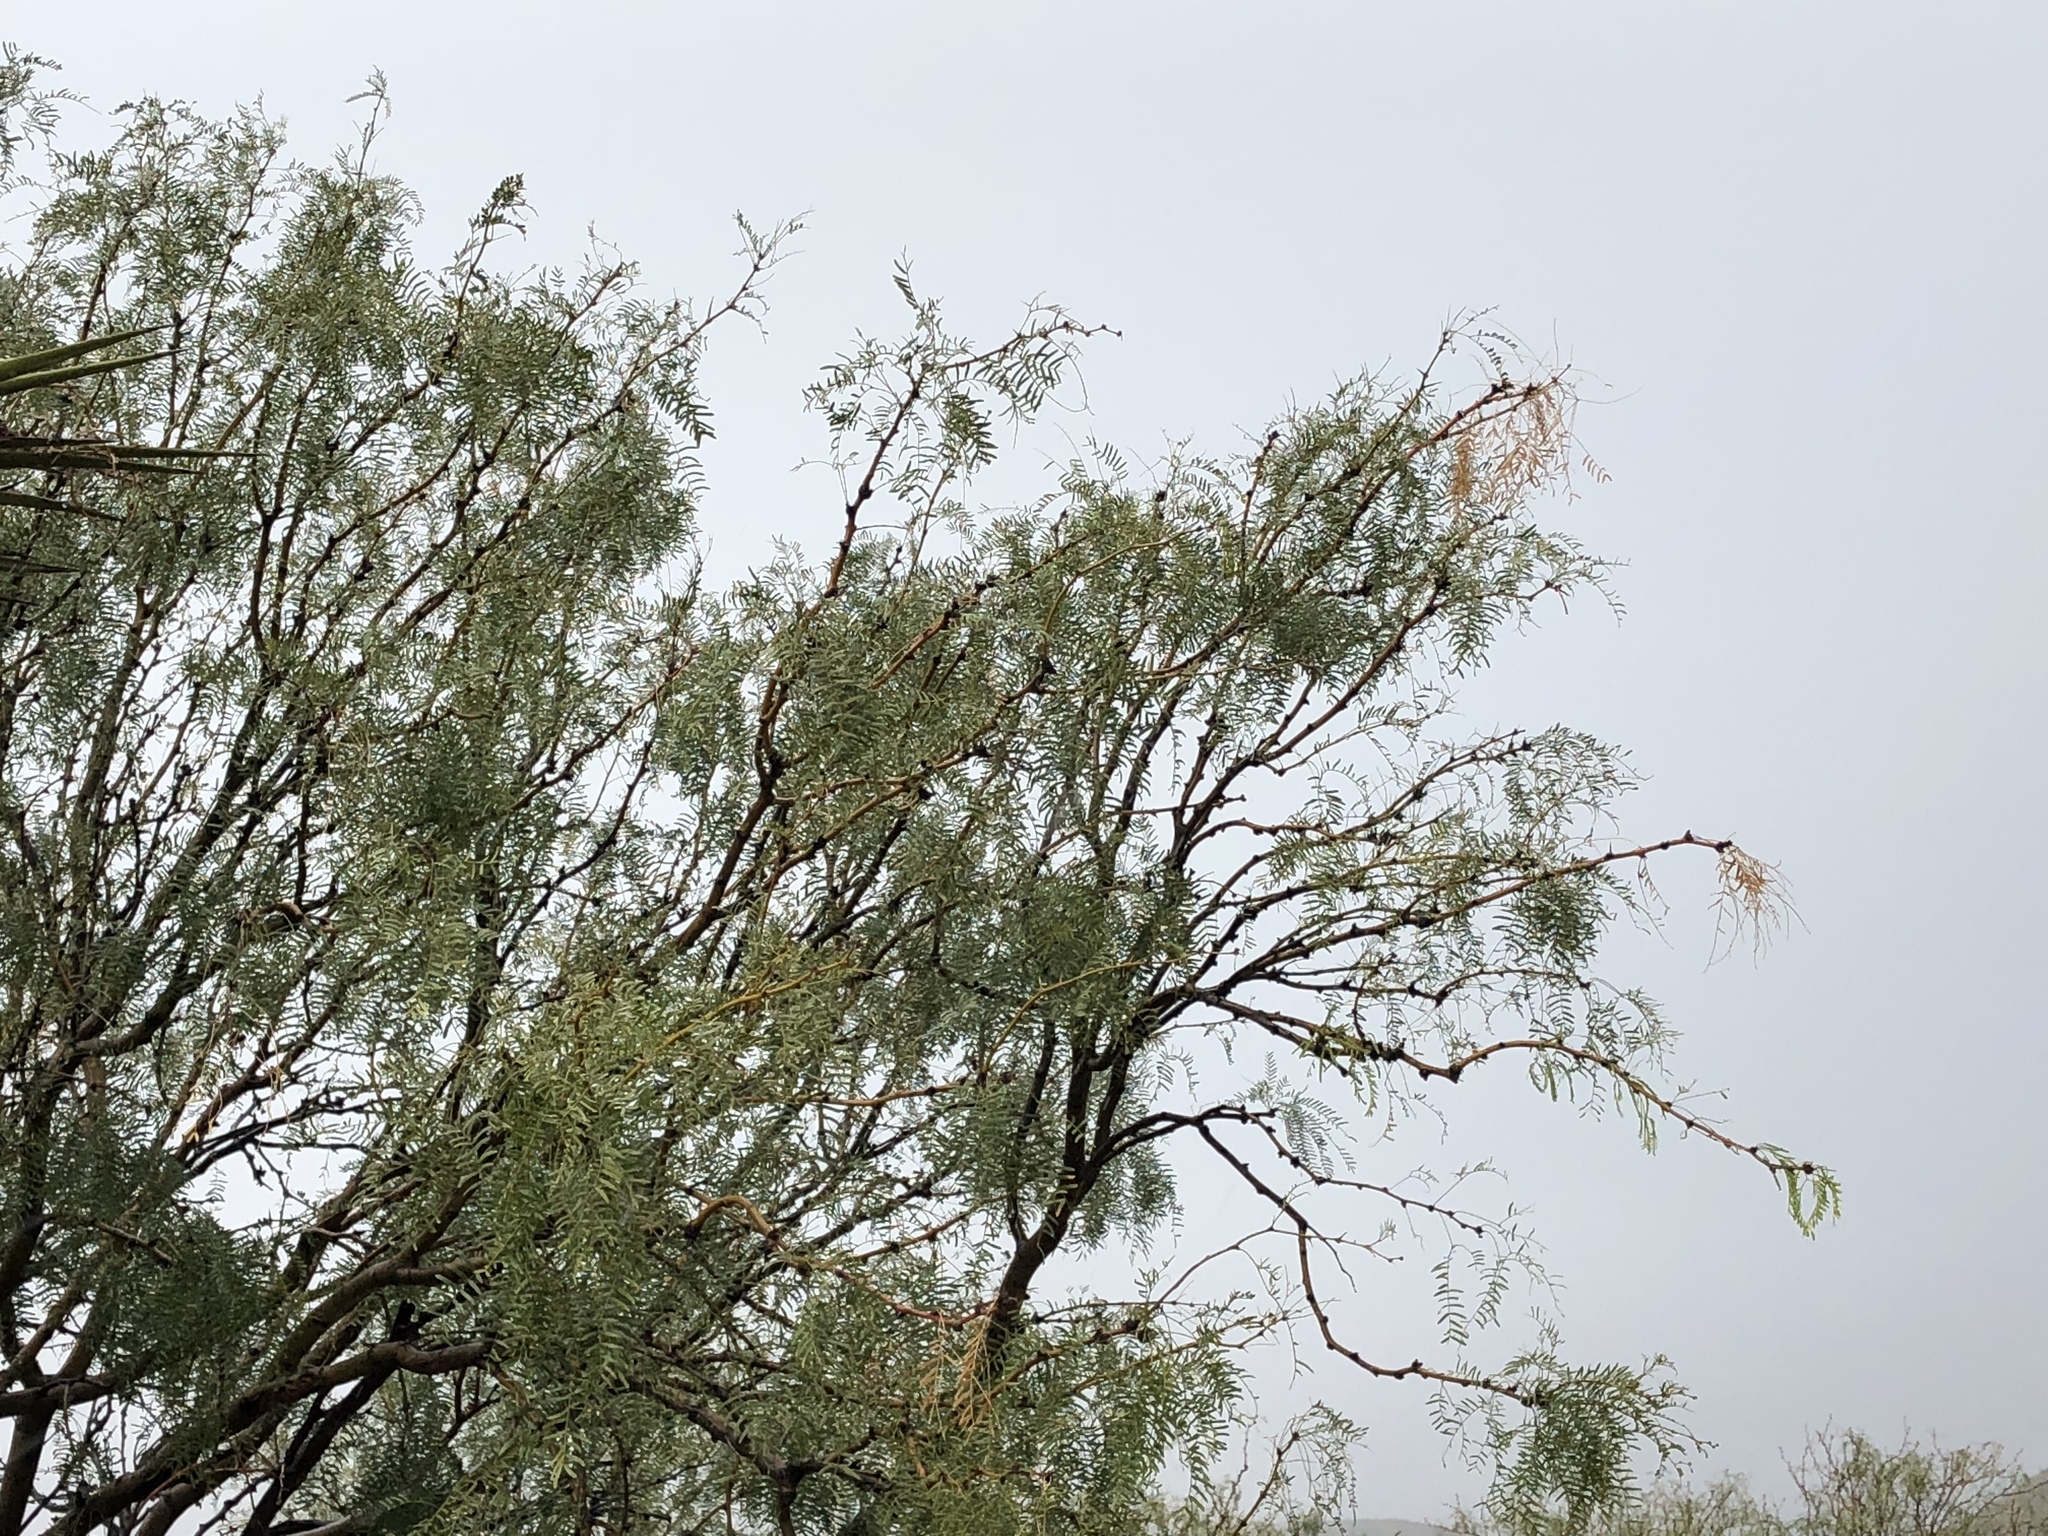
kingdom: Plantae
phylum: Tracheophyta
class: Magnoliopsida
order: Fabales
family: Fabaceae
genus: Prosopis
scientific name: Prosopis glandulosa
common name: Honey mesquite
